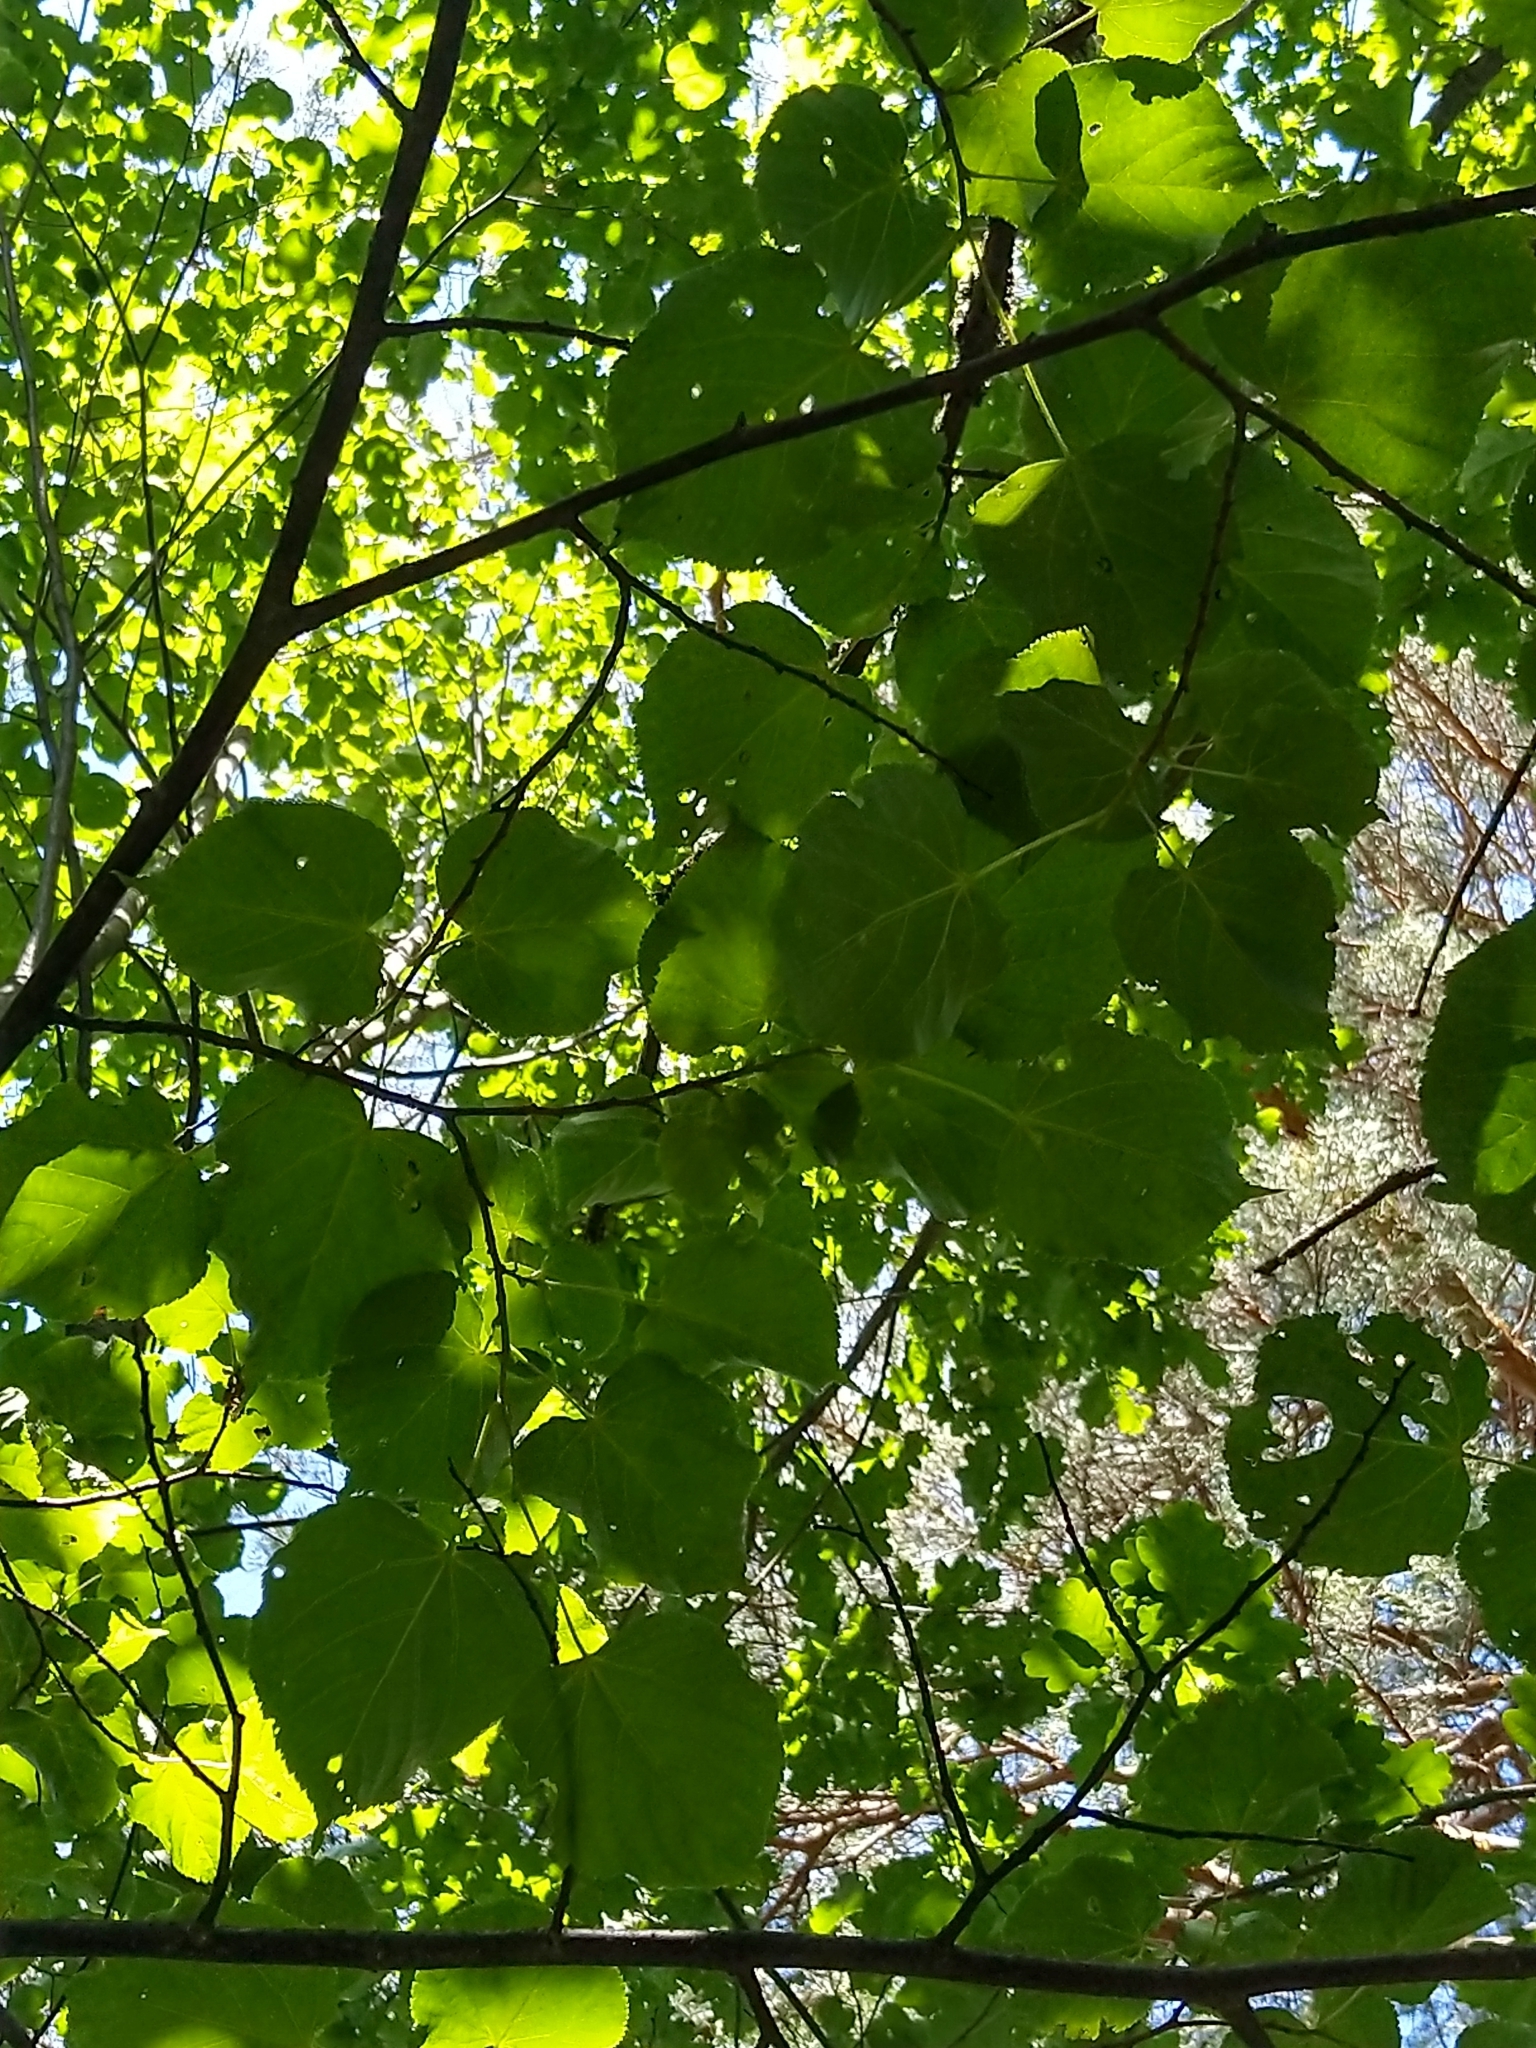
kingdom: Plantae
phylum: Tracheophyta
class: Magnoliopsida
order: Rosales
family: Ulmaceae
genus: Ulmus
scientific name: Ulmus laevis
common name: European white-elm
